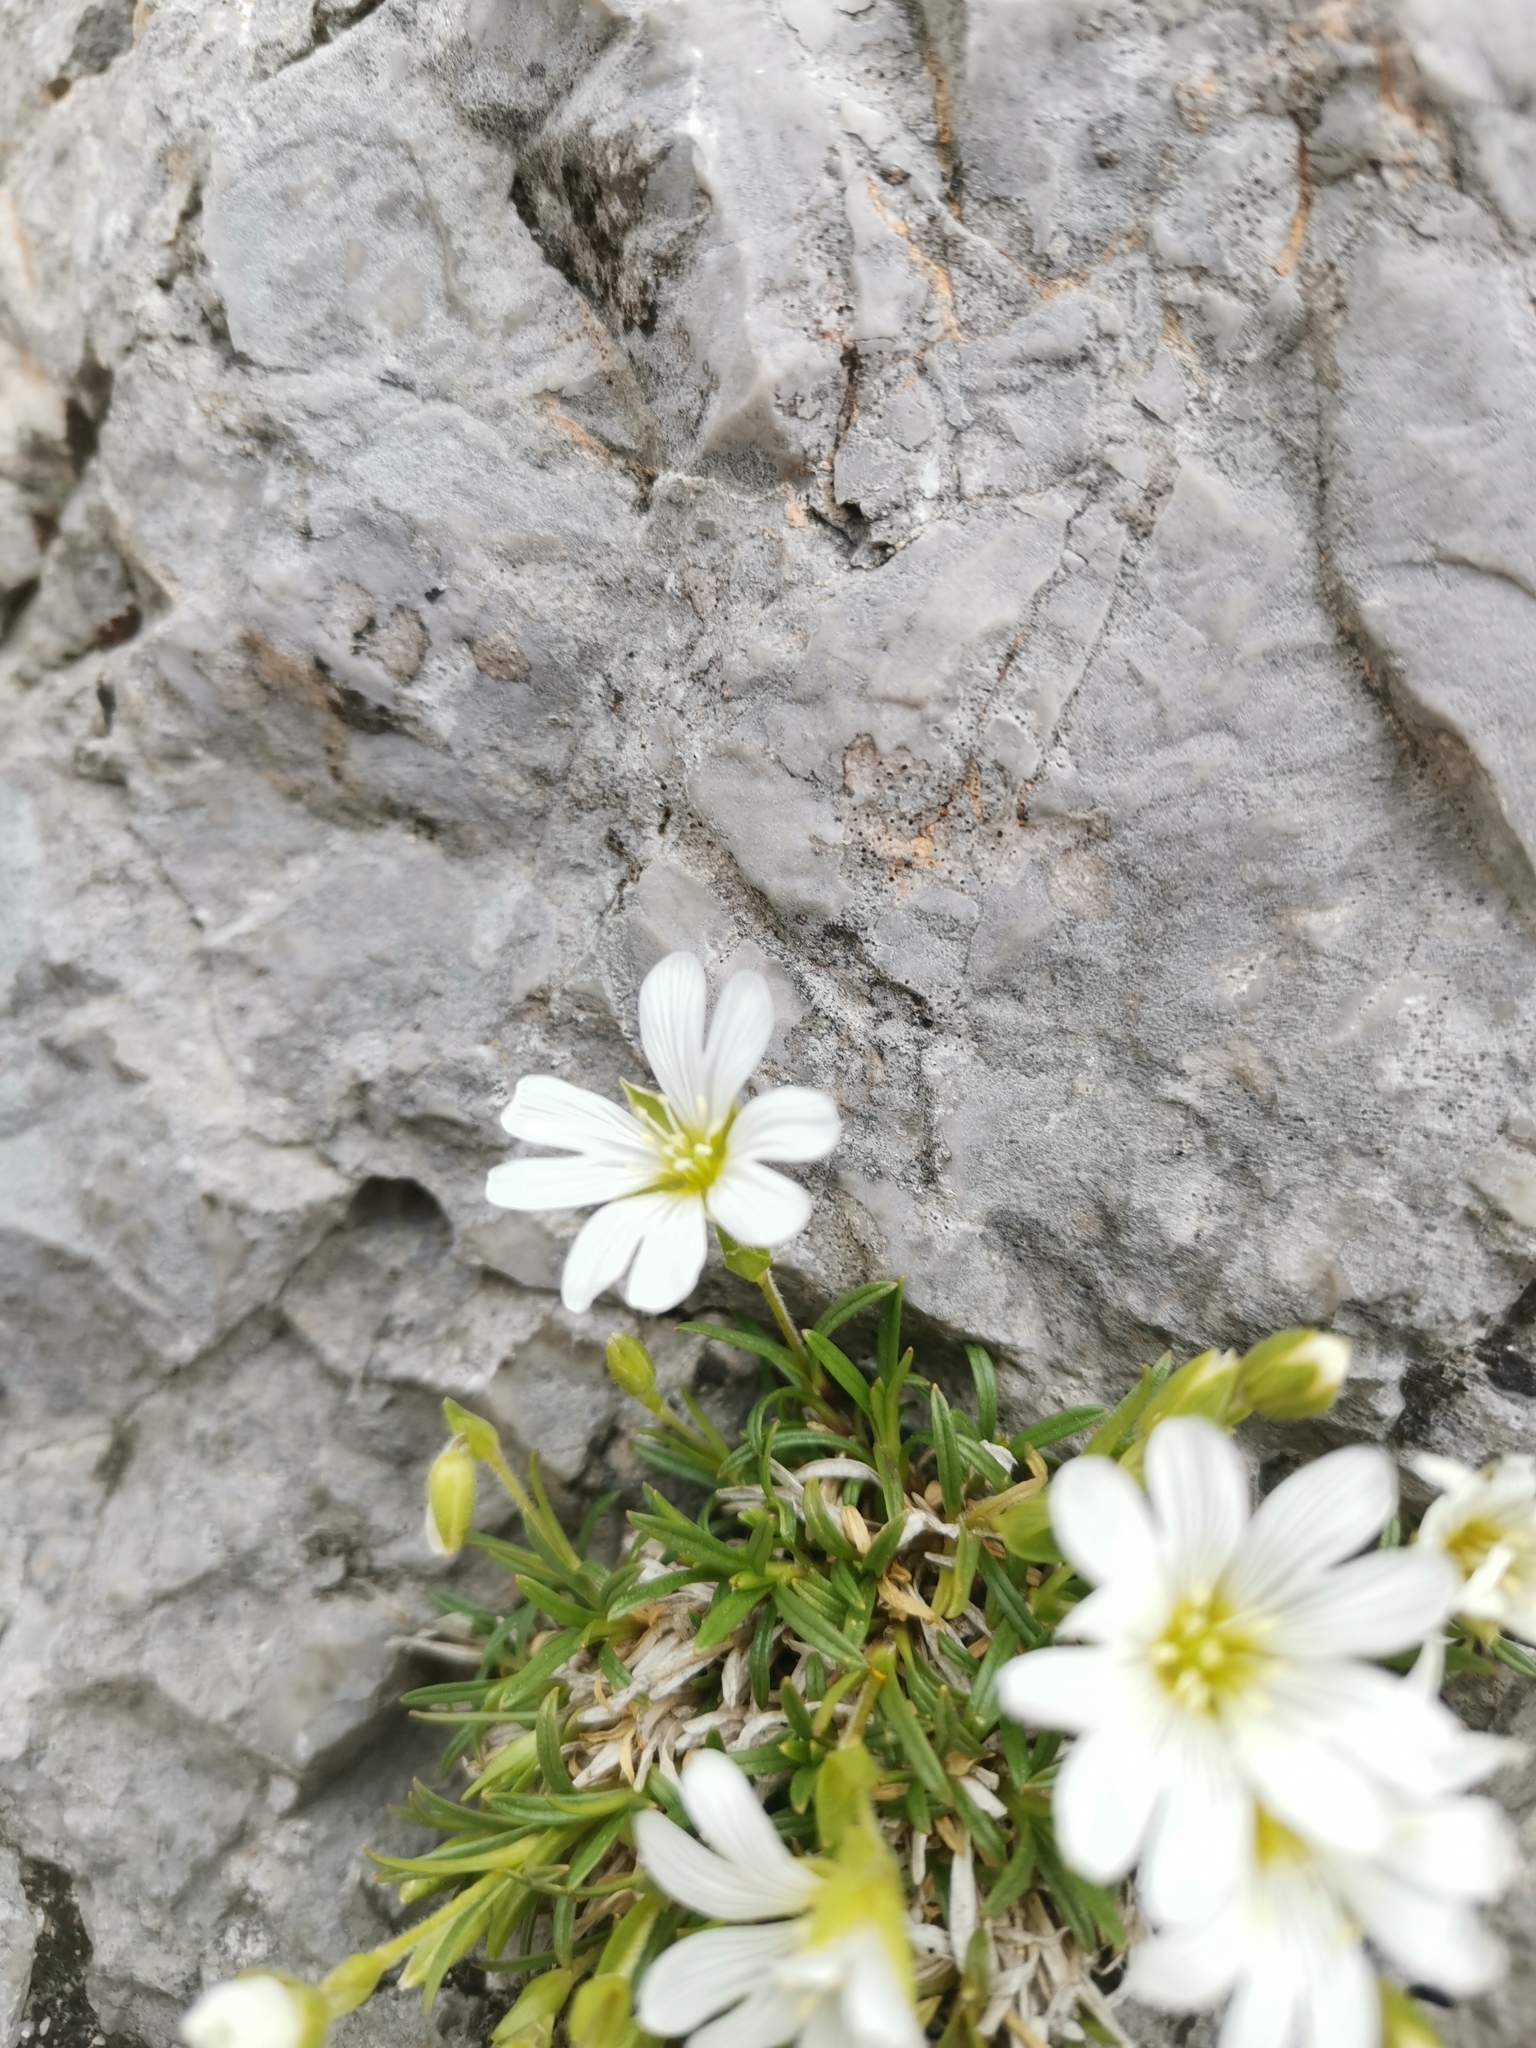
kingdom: Plantae
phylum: Tracheophyta
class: Magnoliopsida
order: Caryophyllales
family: Caryophyllaceae
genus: Cerastium
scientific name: Cerastium julicum
